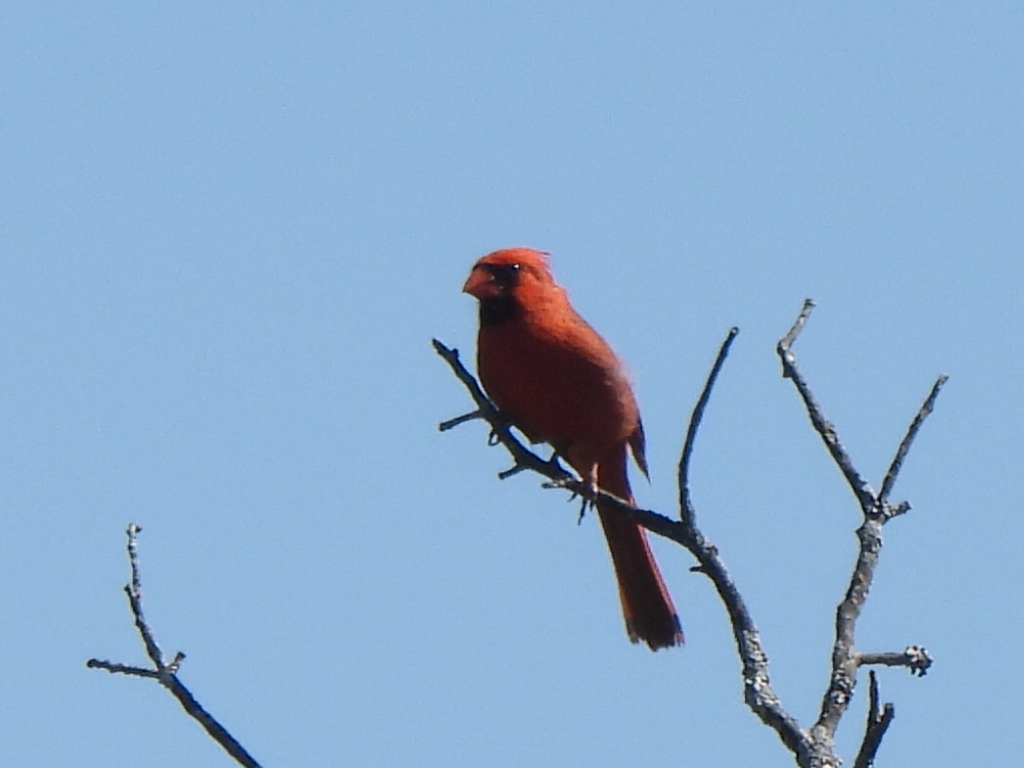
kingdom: Animalia
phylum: Chordata
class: Aves
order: Passeriformes
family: Cardinalidae
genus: Cardinalis
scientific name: Cardinalis cardinalis
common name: Northern cardinal
